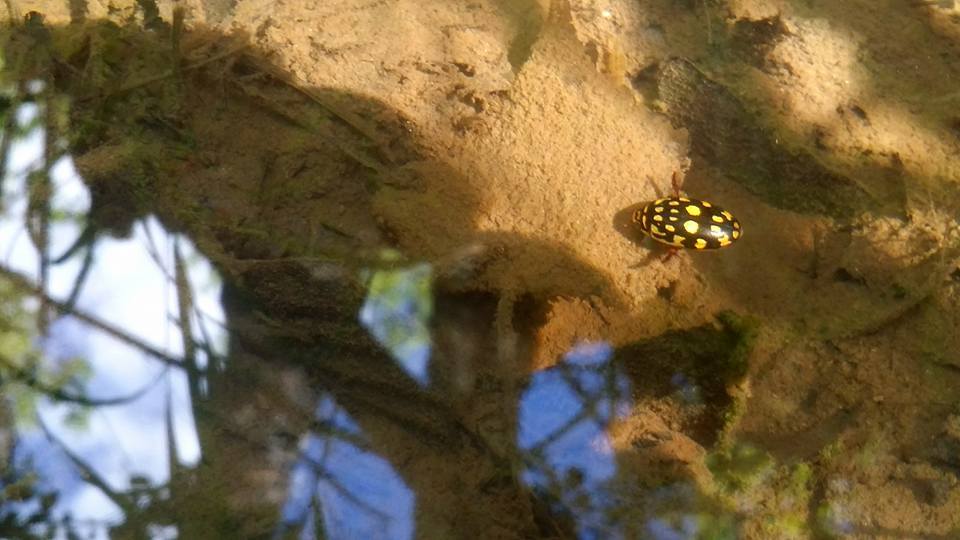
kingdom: Animalia
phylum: Arthropoda
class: Insecta
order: Coleoptera
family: Dytiscidae
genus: Thermonectus
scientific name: Thermonectus marmoratus
